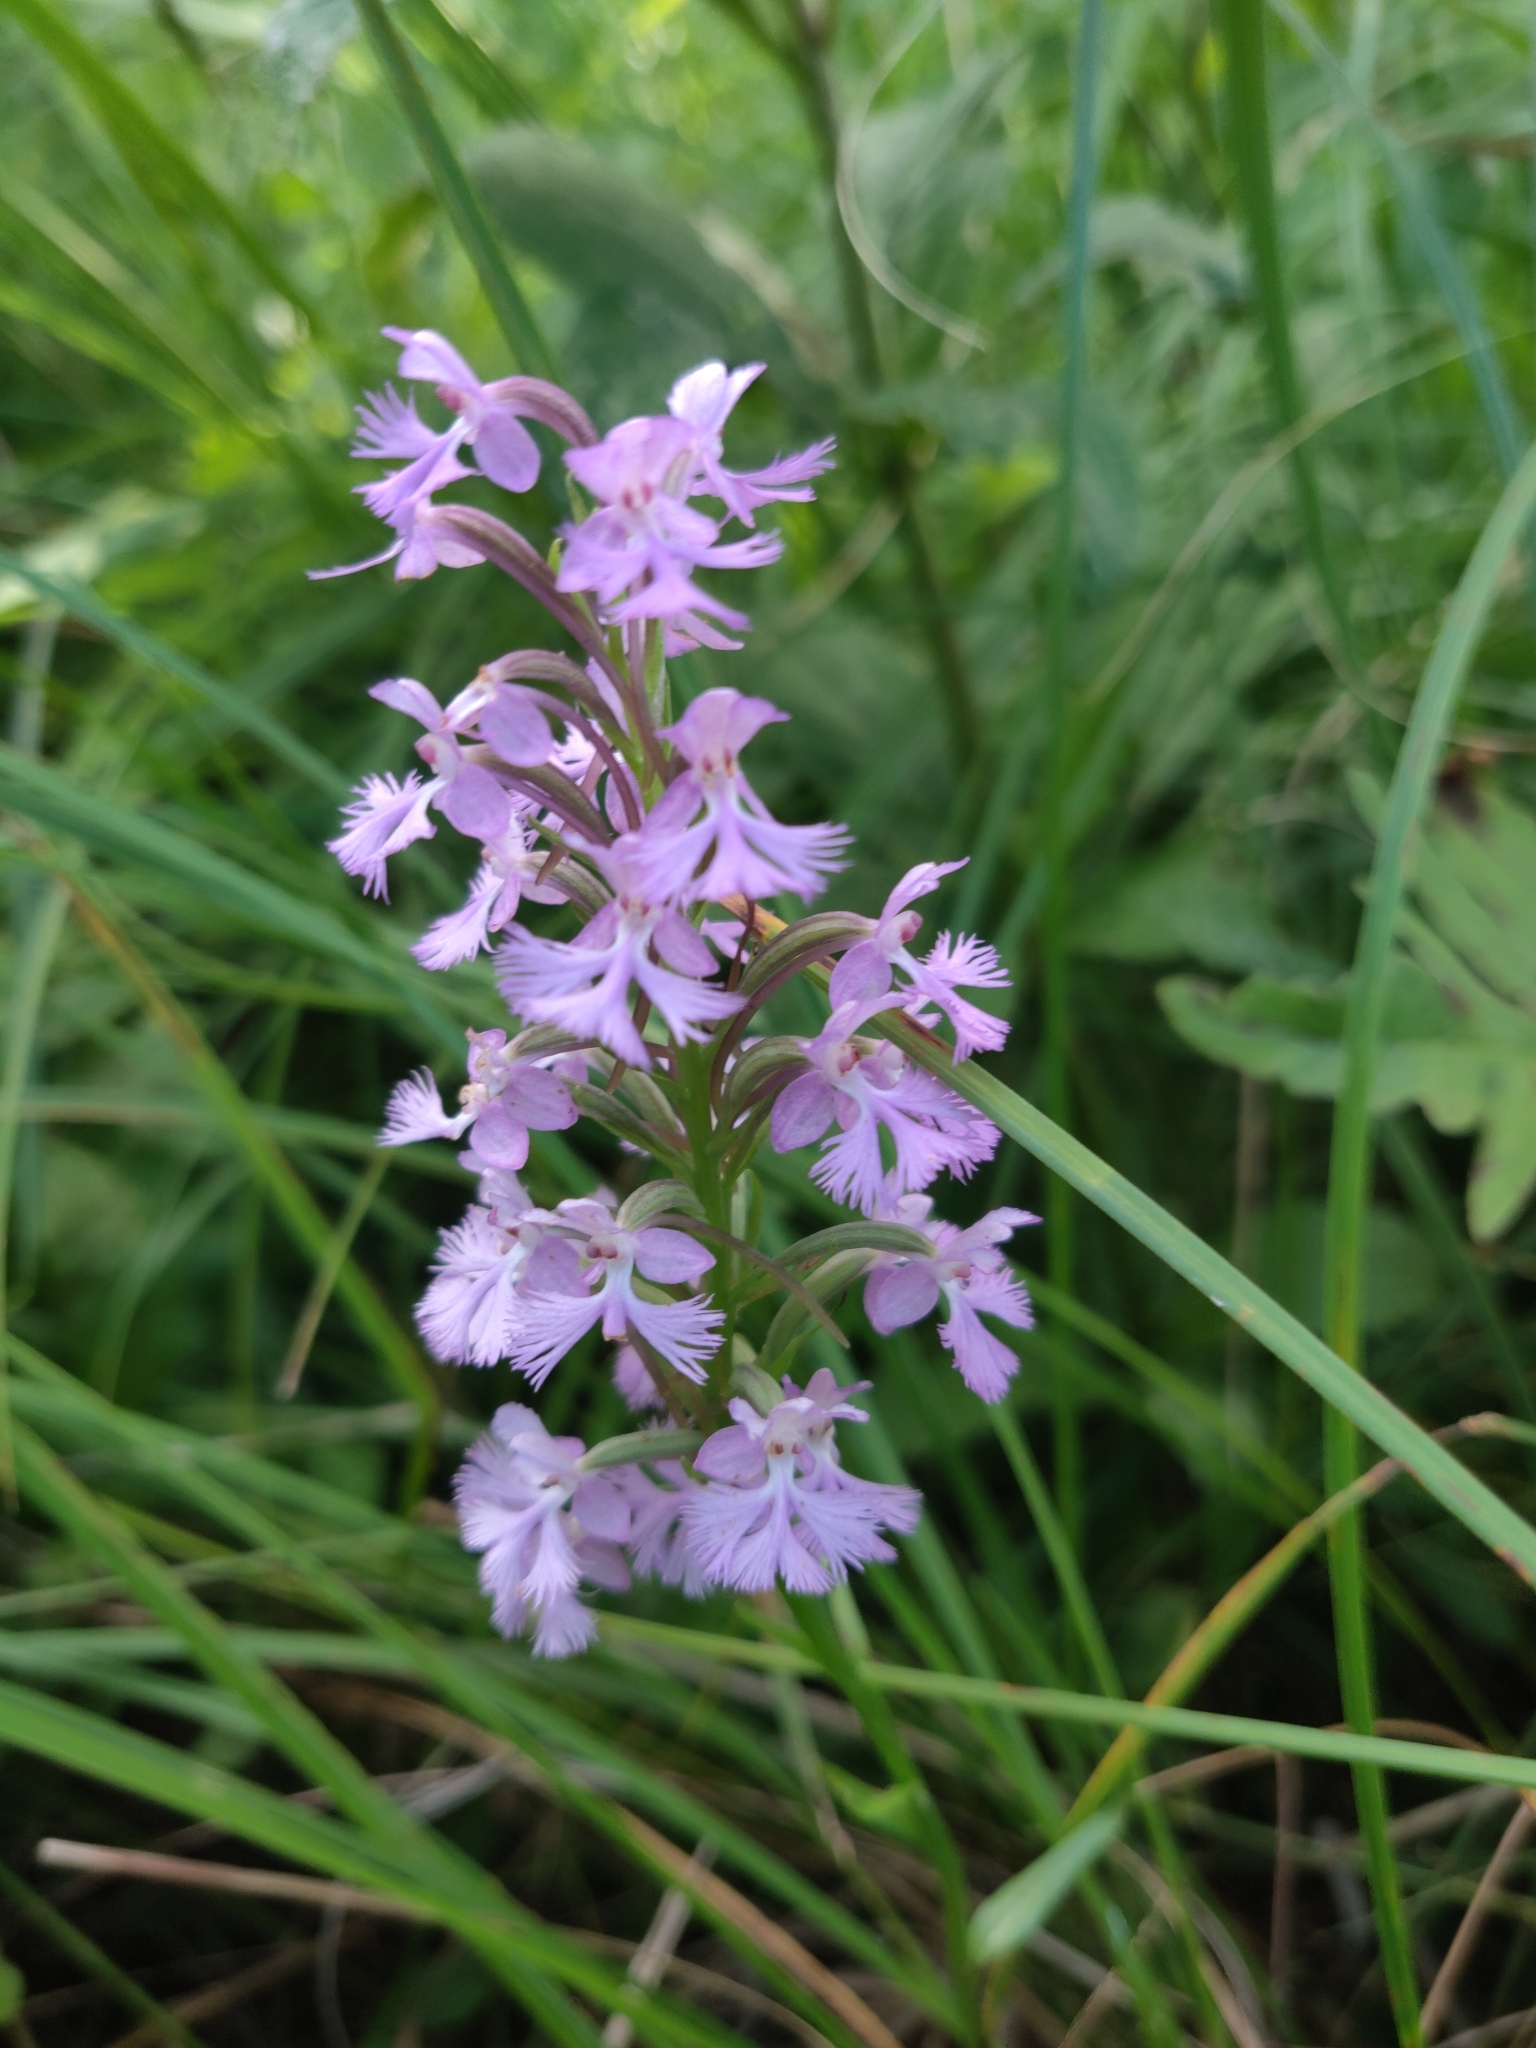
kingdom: Plantae
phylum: Tracheophyta
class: Liliopsida
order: Asparagales
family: Orchidaceae
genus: Platanthera
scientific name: Platanthera psycodes
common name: Lesser purple fringed orchid
